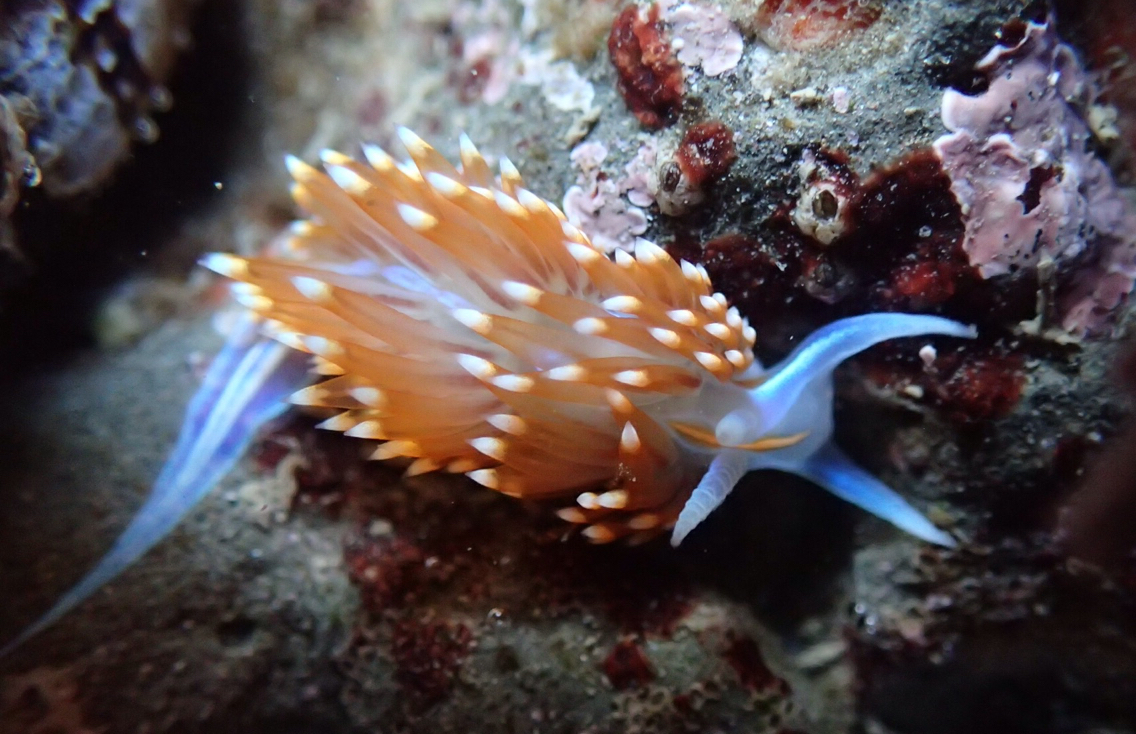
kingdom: Animalia
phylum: Mollusca
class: Gastropoda
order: Nudibranchia
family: Myrrhinidae
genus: Hermissenda
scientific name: Hermissenda opalescens
